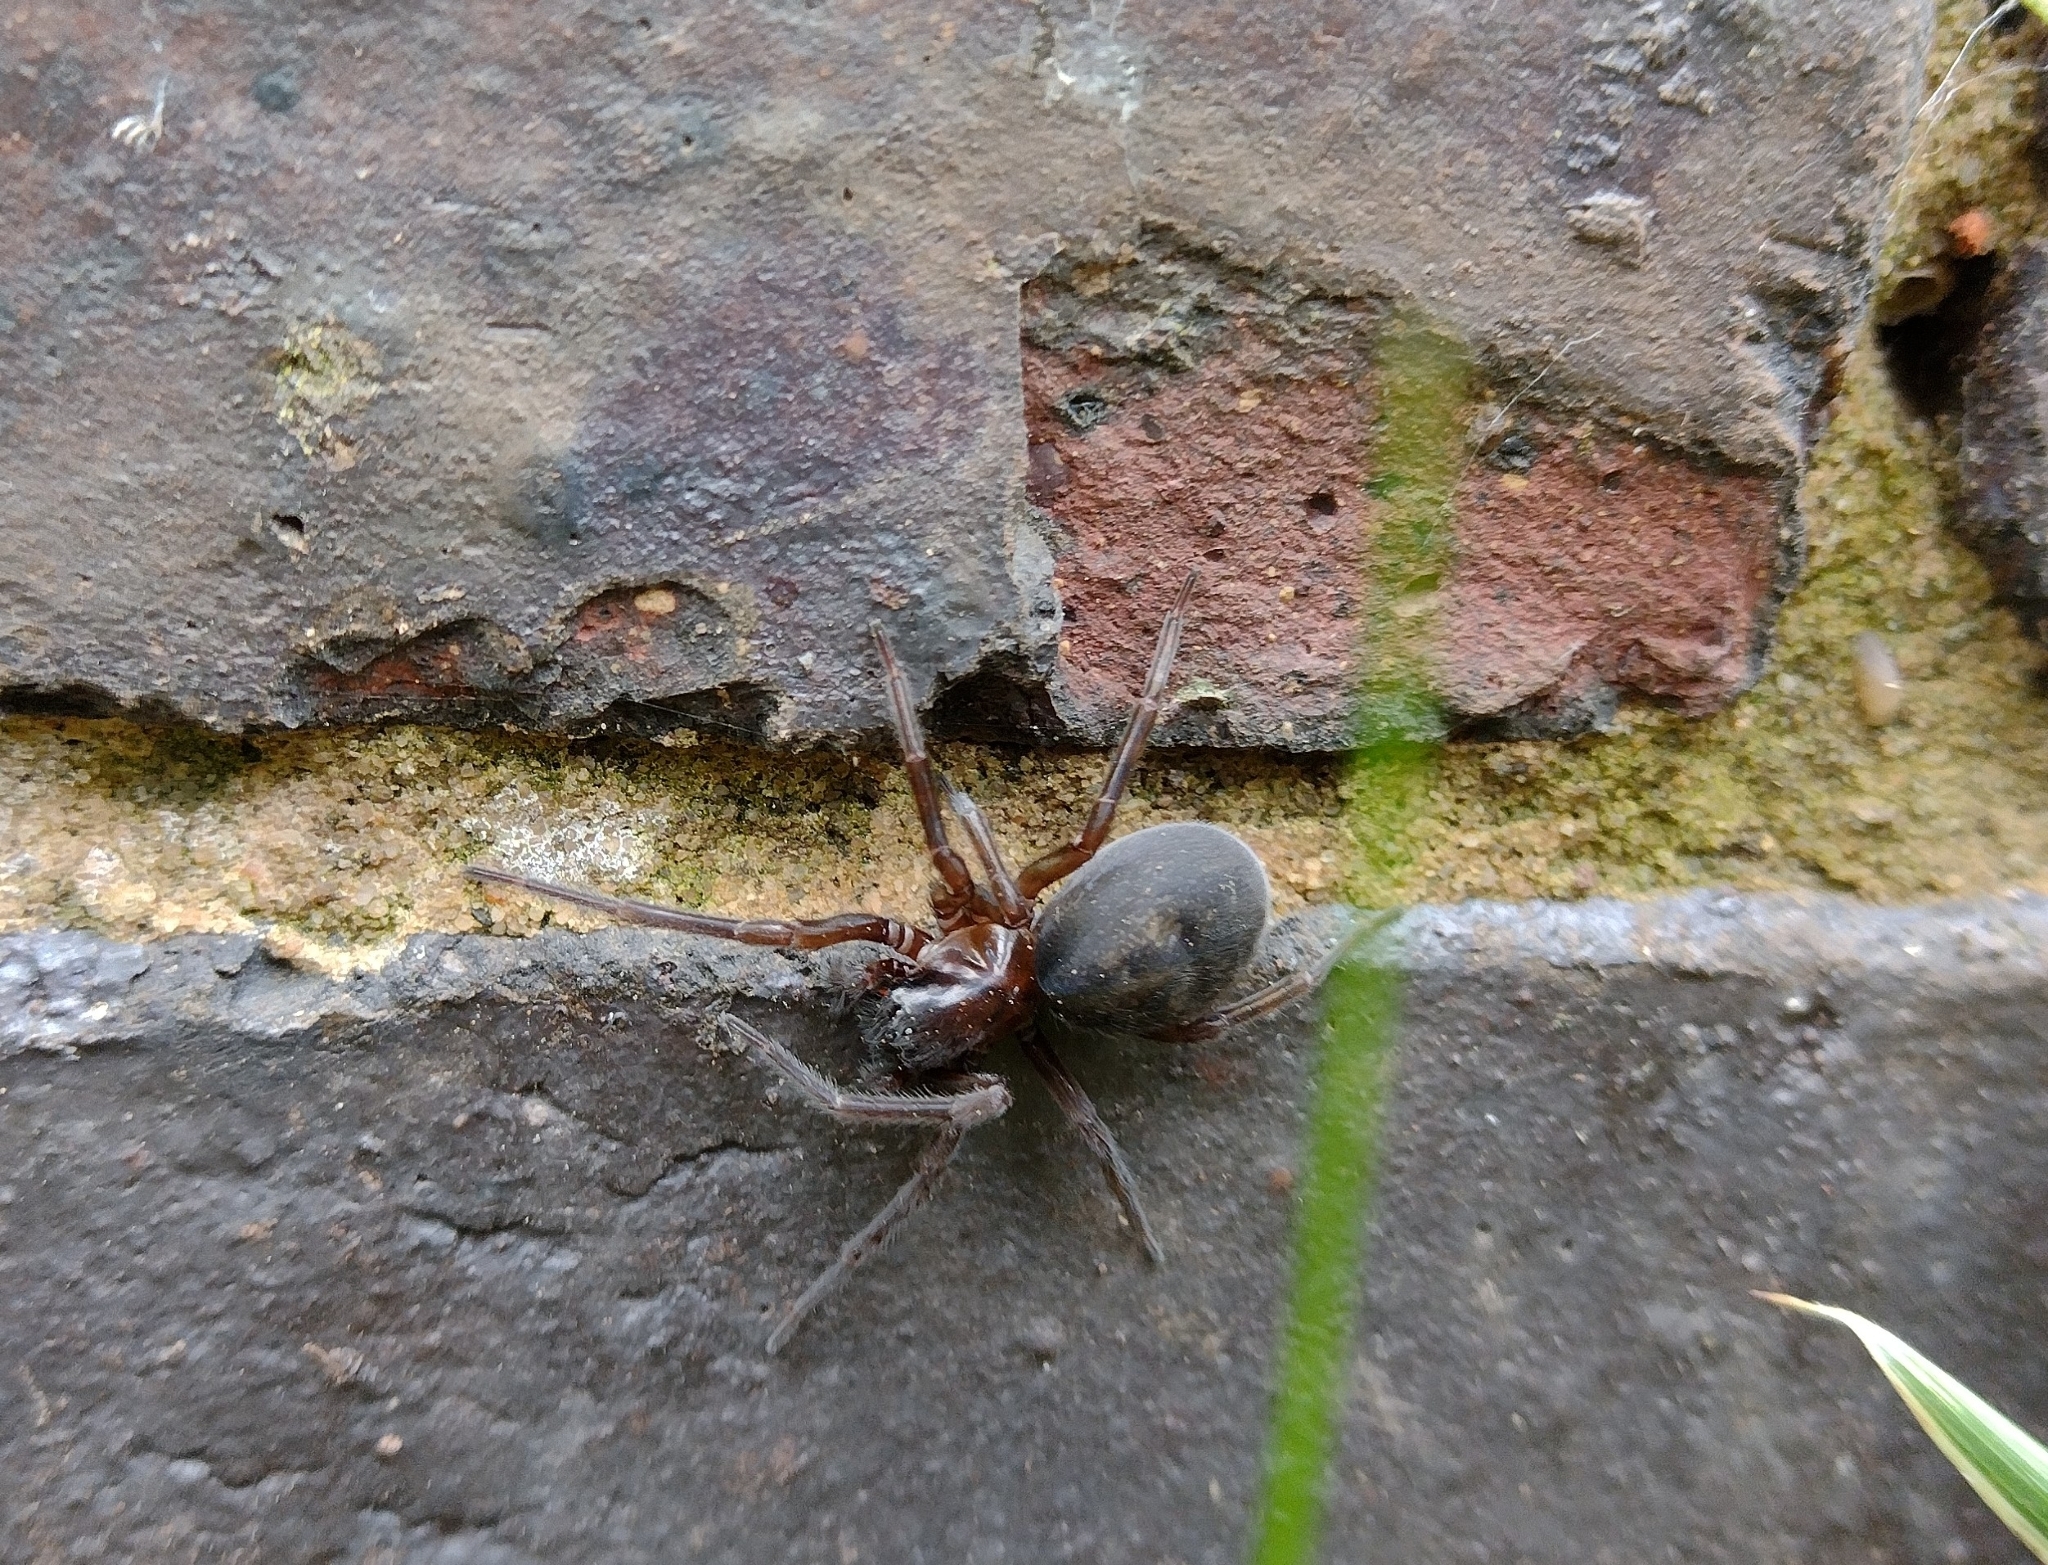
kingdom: Animalia
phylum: Arthropoda
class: Arachnida
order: Araneae
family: Amaurobiidae
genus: Amaurobius
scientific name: Amaurobius ferox
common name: Black laceweaver
